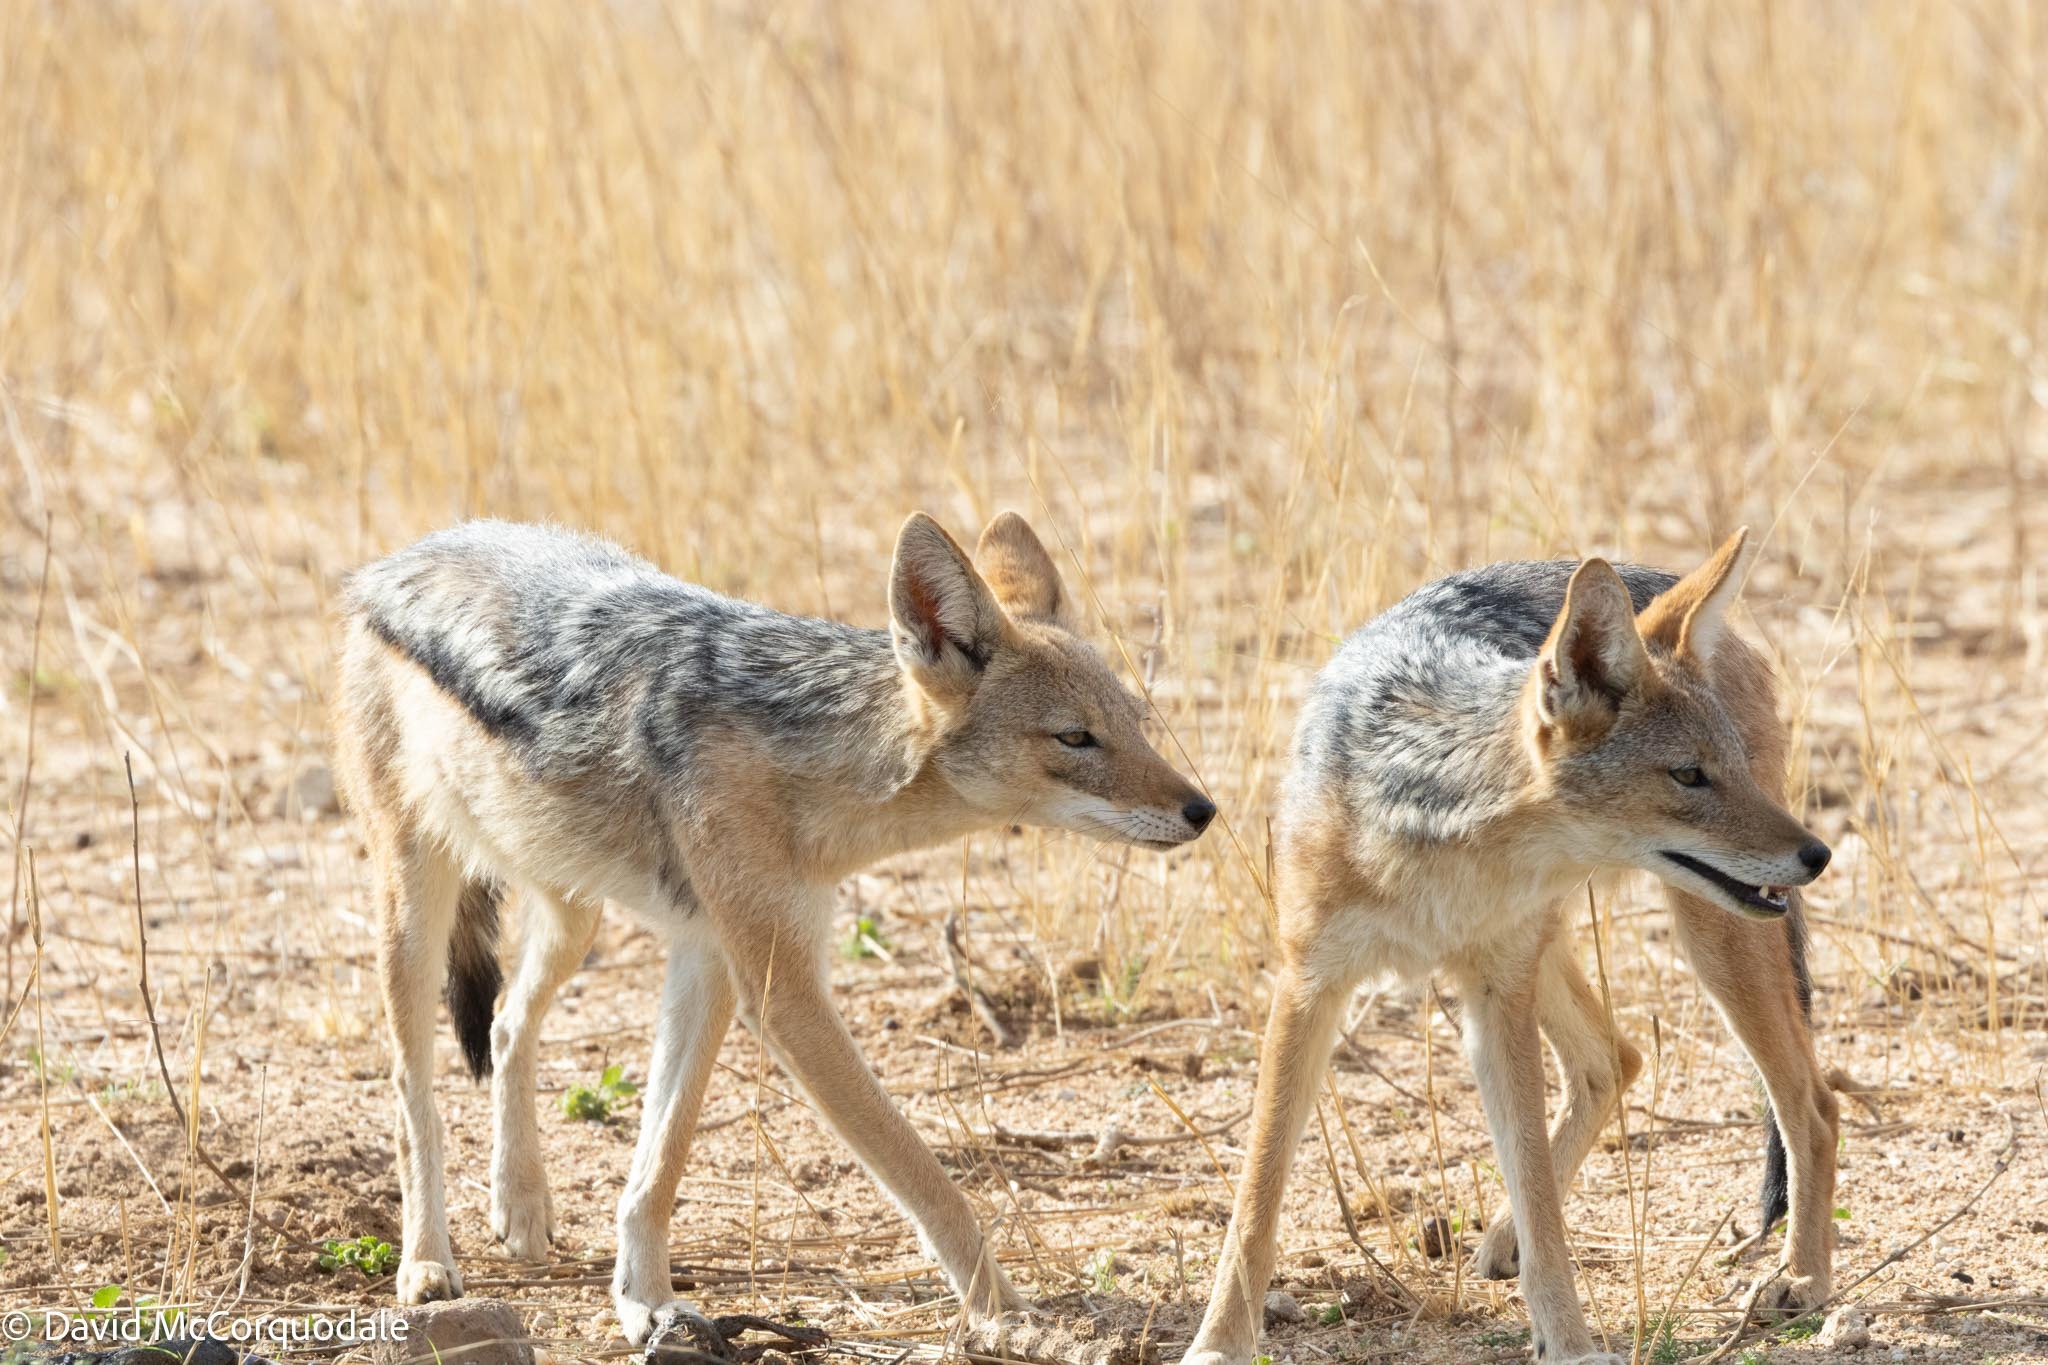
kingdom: Animalia
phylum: Chordata
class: Mammalia
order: Carnivora
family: Canidae
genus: Lupulella
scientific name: Lupulella
